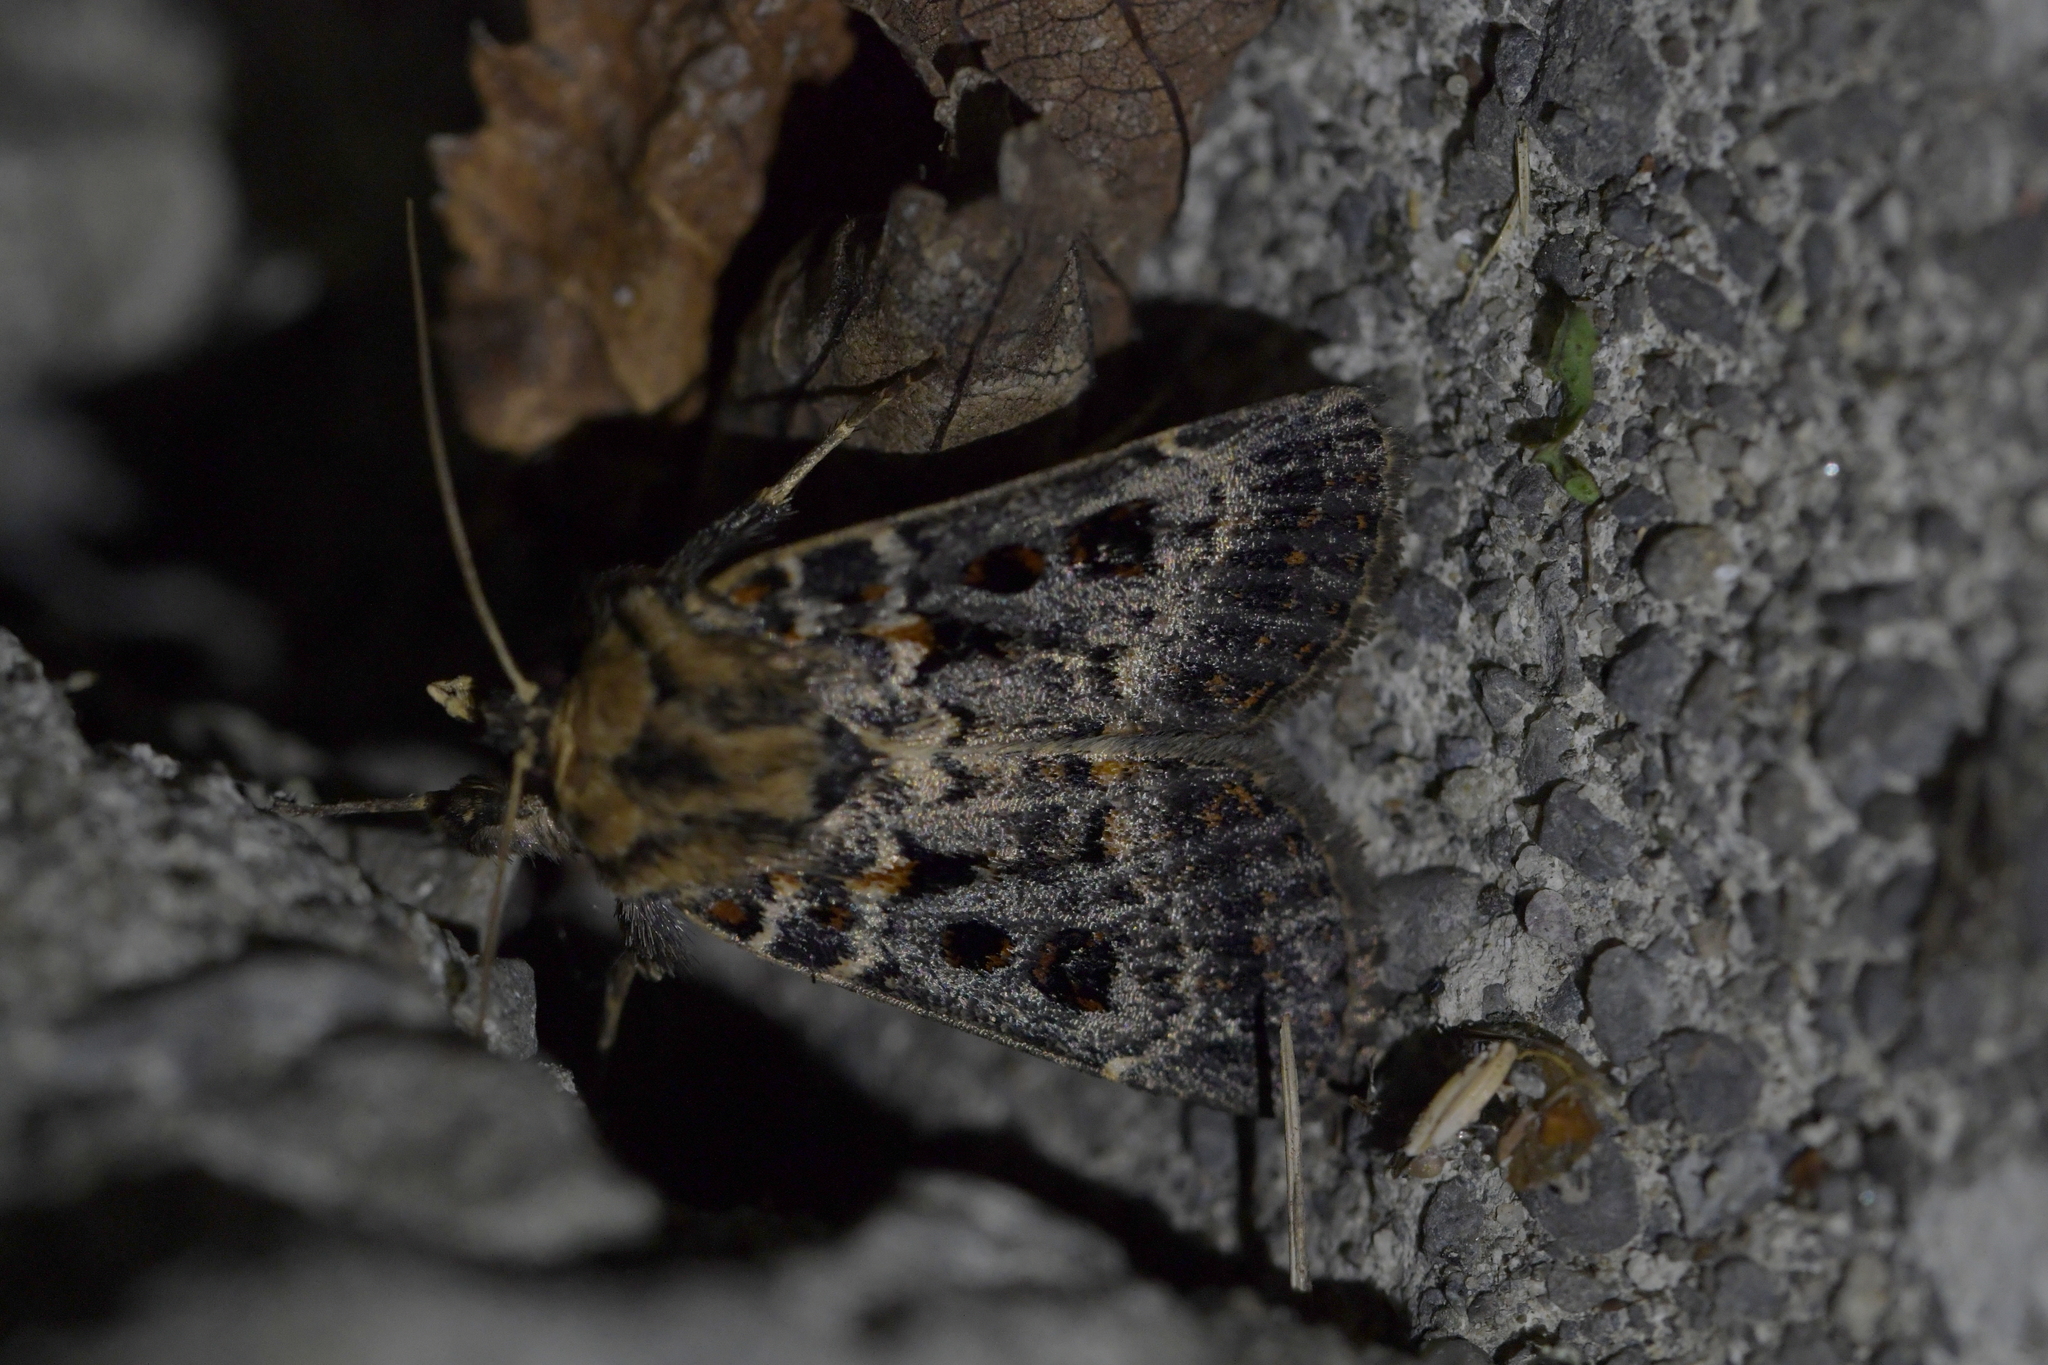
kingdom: Animalia
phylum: Arthropoda
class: Insecta
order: Lepidoptera
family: Noctuidae
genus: Proteuxoa
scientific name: Proteuxoa sanguinipuncta
